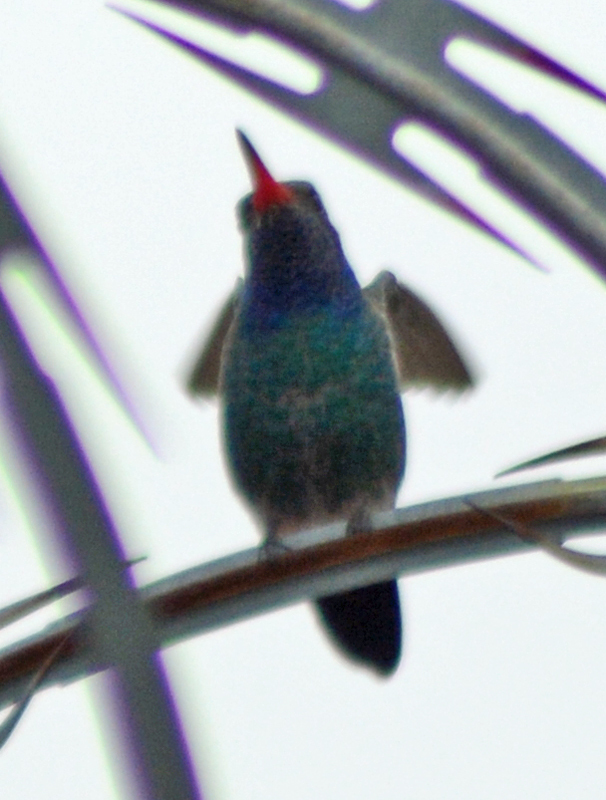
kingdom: Animalia
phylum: Chordata
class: Aves
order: Apodiformes
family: Trochilidae
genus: Cynanthus
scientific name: Cynanthus latirostris
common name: Broad-billed hummingbird
